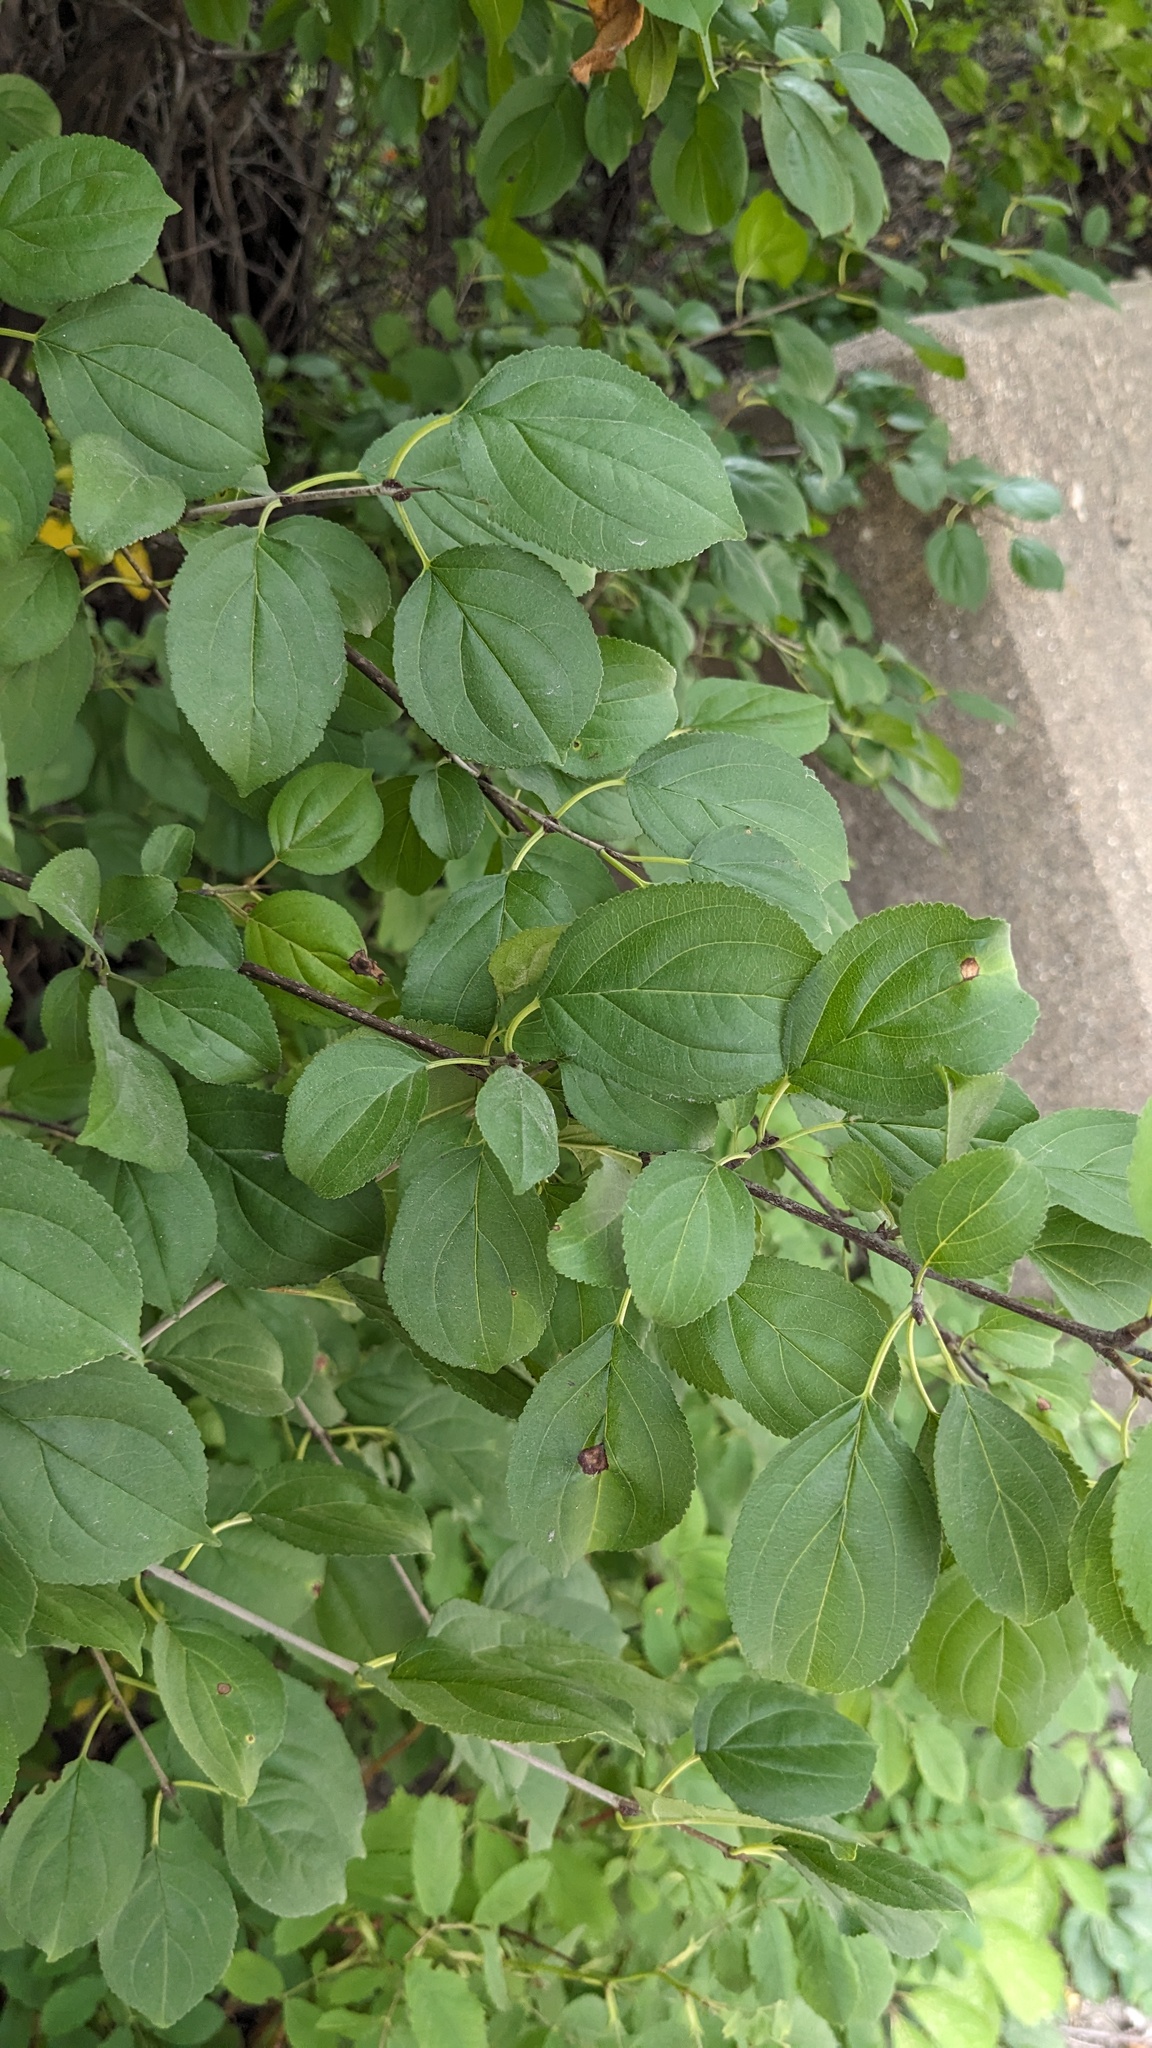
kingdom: Plantae
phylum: Tracheophyta
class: Magnoliopsida
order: Rosales
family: Rhamnaceae
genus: Rhamnus
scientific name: Rhamnus cathartica
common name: Common buckthorn
